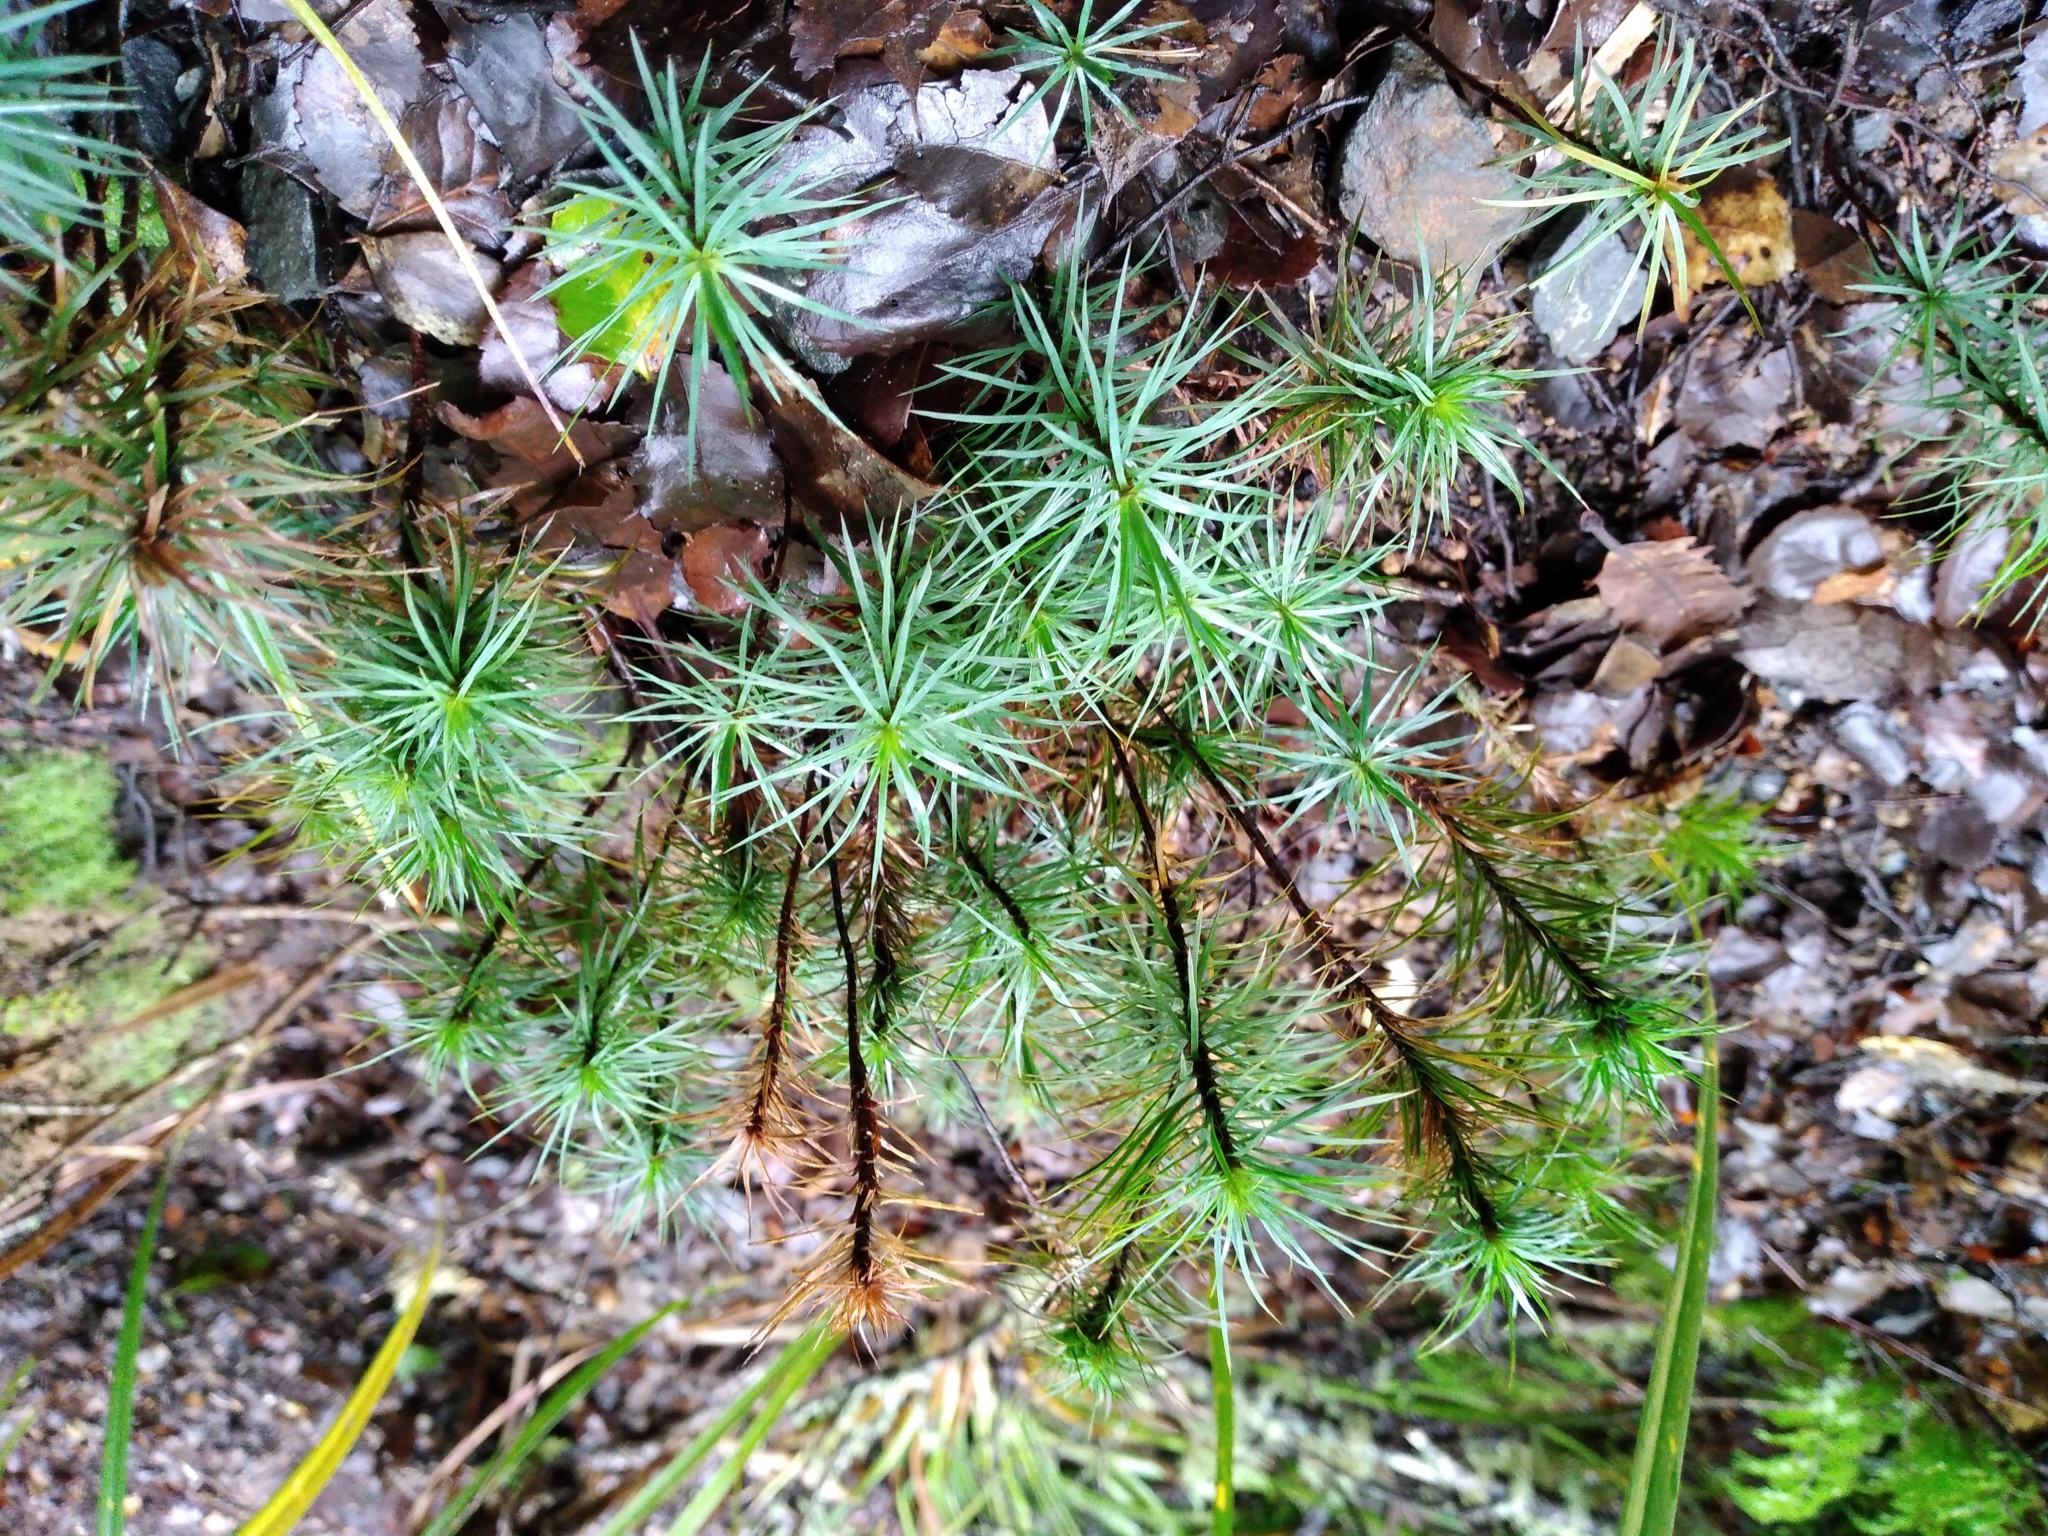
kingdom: Plantae
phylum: Bryophyta
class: Polytrichopsida
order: Polytrichales
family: Polytrichaceae
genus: Dawsonia
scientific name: Dawsonia superba
